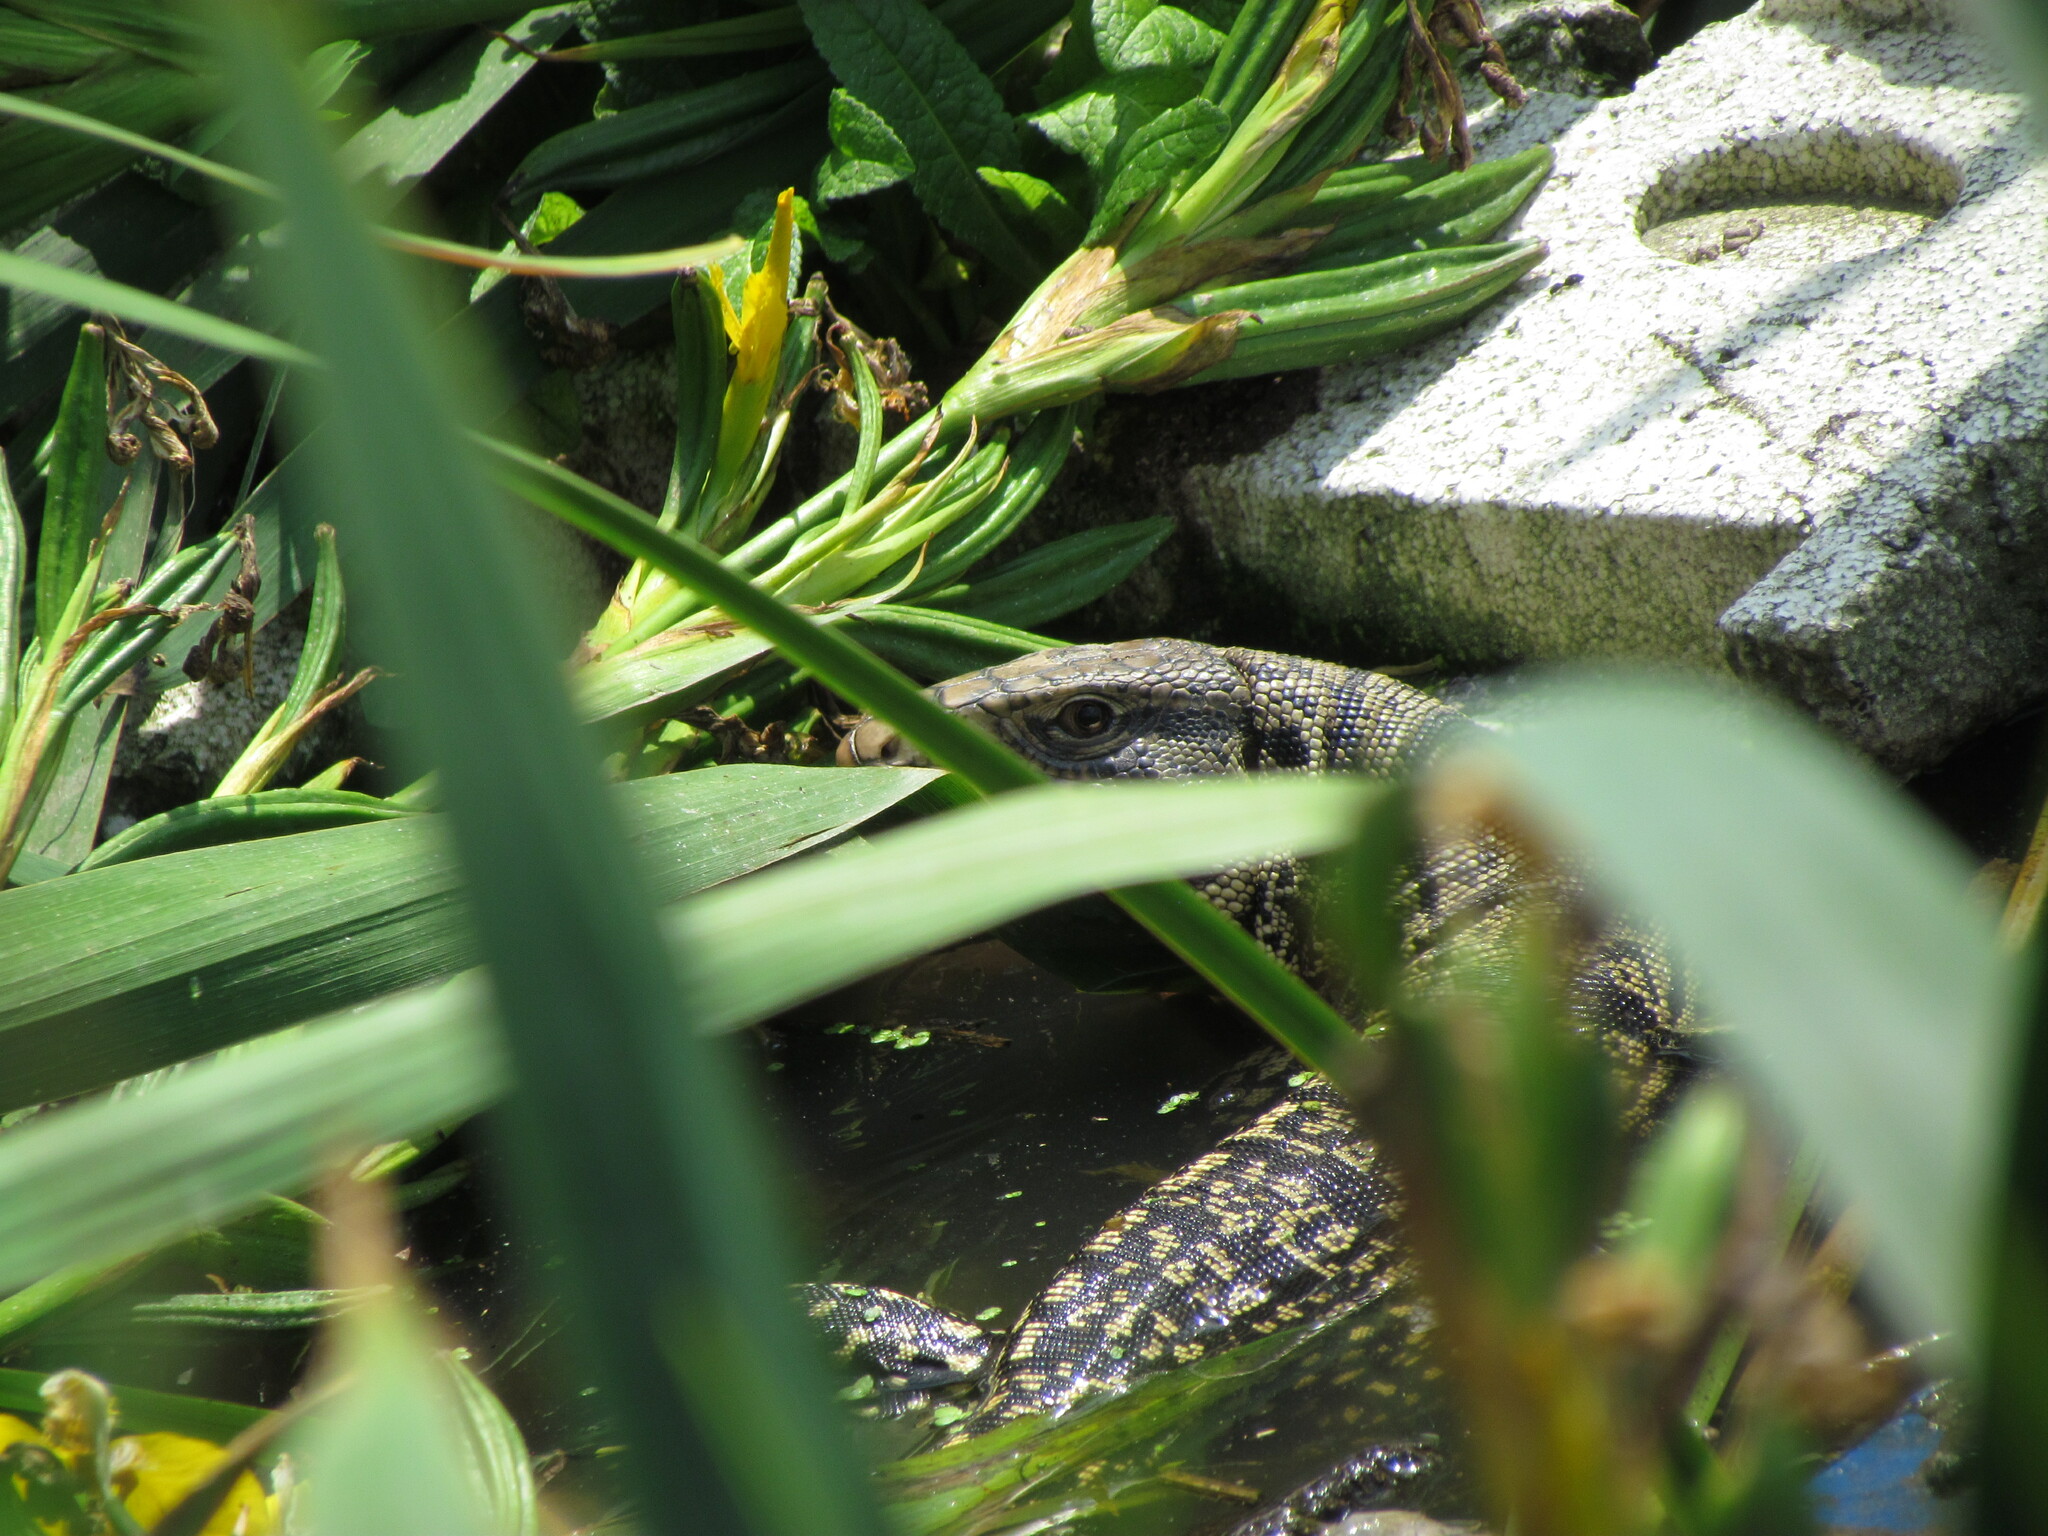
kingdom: Animalia
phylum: Chordata
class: Squamata
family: Teiidae
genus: Salvator
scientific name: Salvator merianae
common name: Argentine black and white tegu
